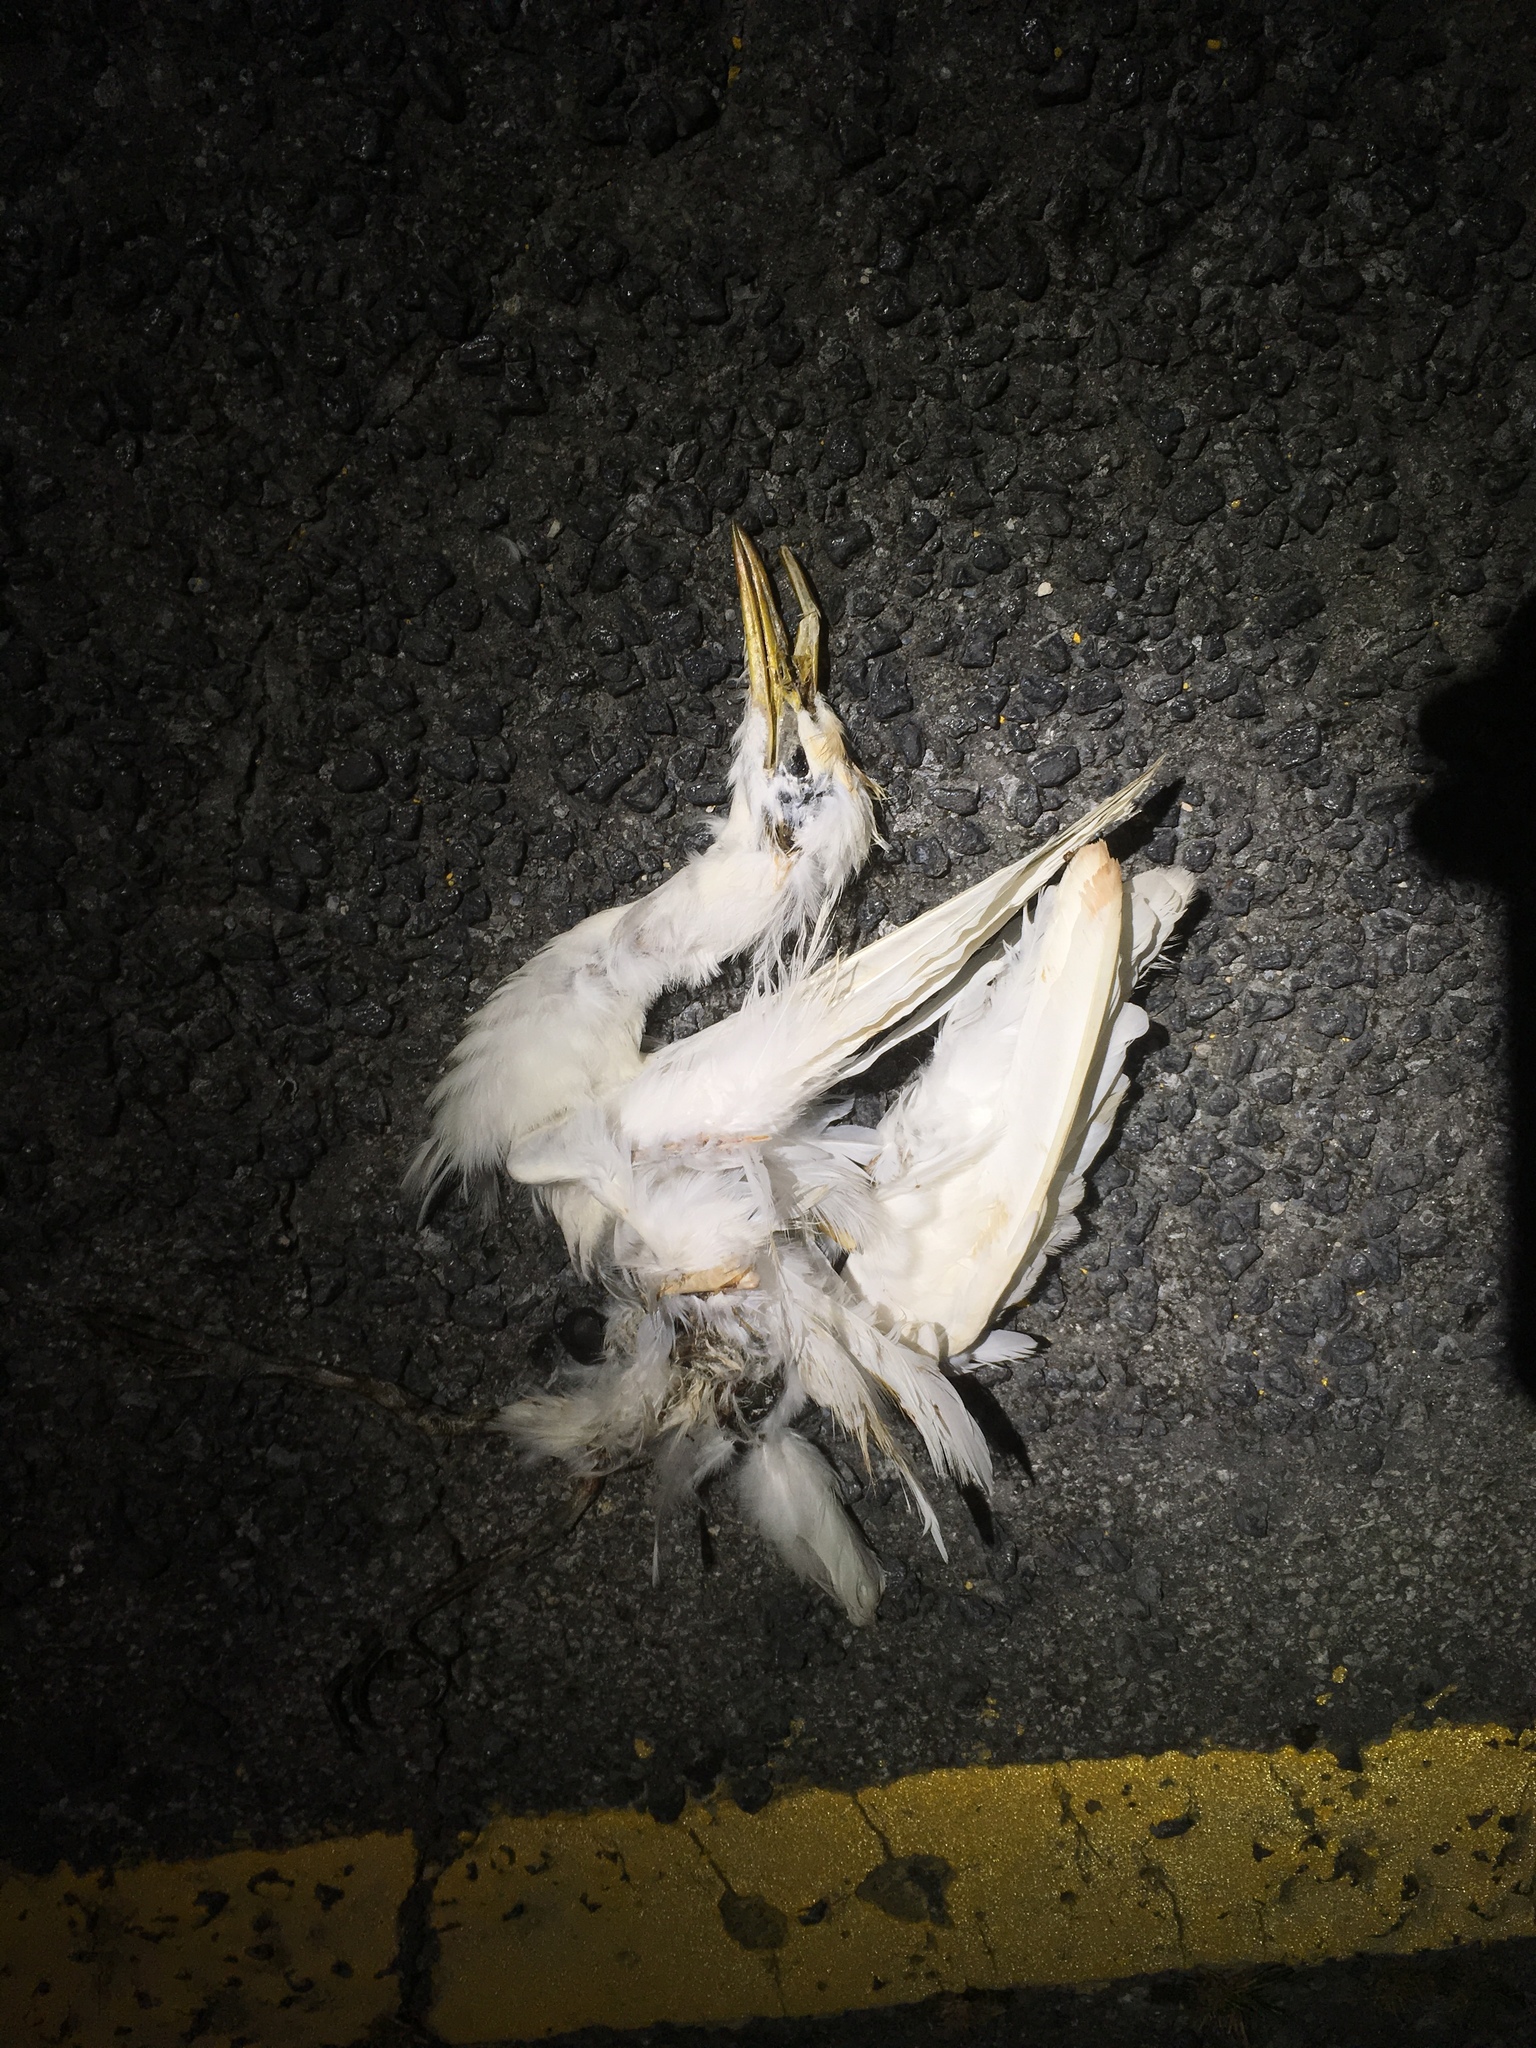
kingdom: Animalia
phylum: Chordata
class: Aves
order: Pelecaniformes
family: Ardeidae
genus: Bubulcus
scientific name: Bubulcus ibis
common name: Cattle egret
